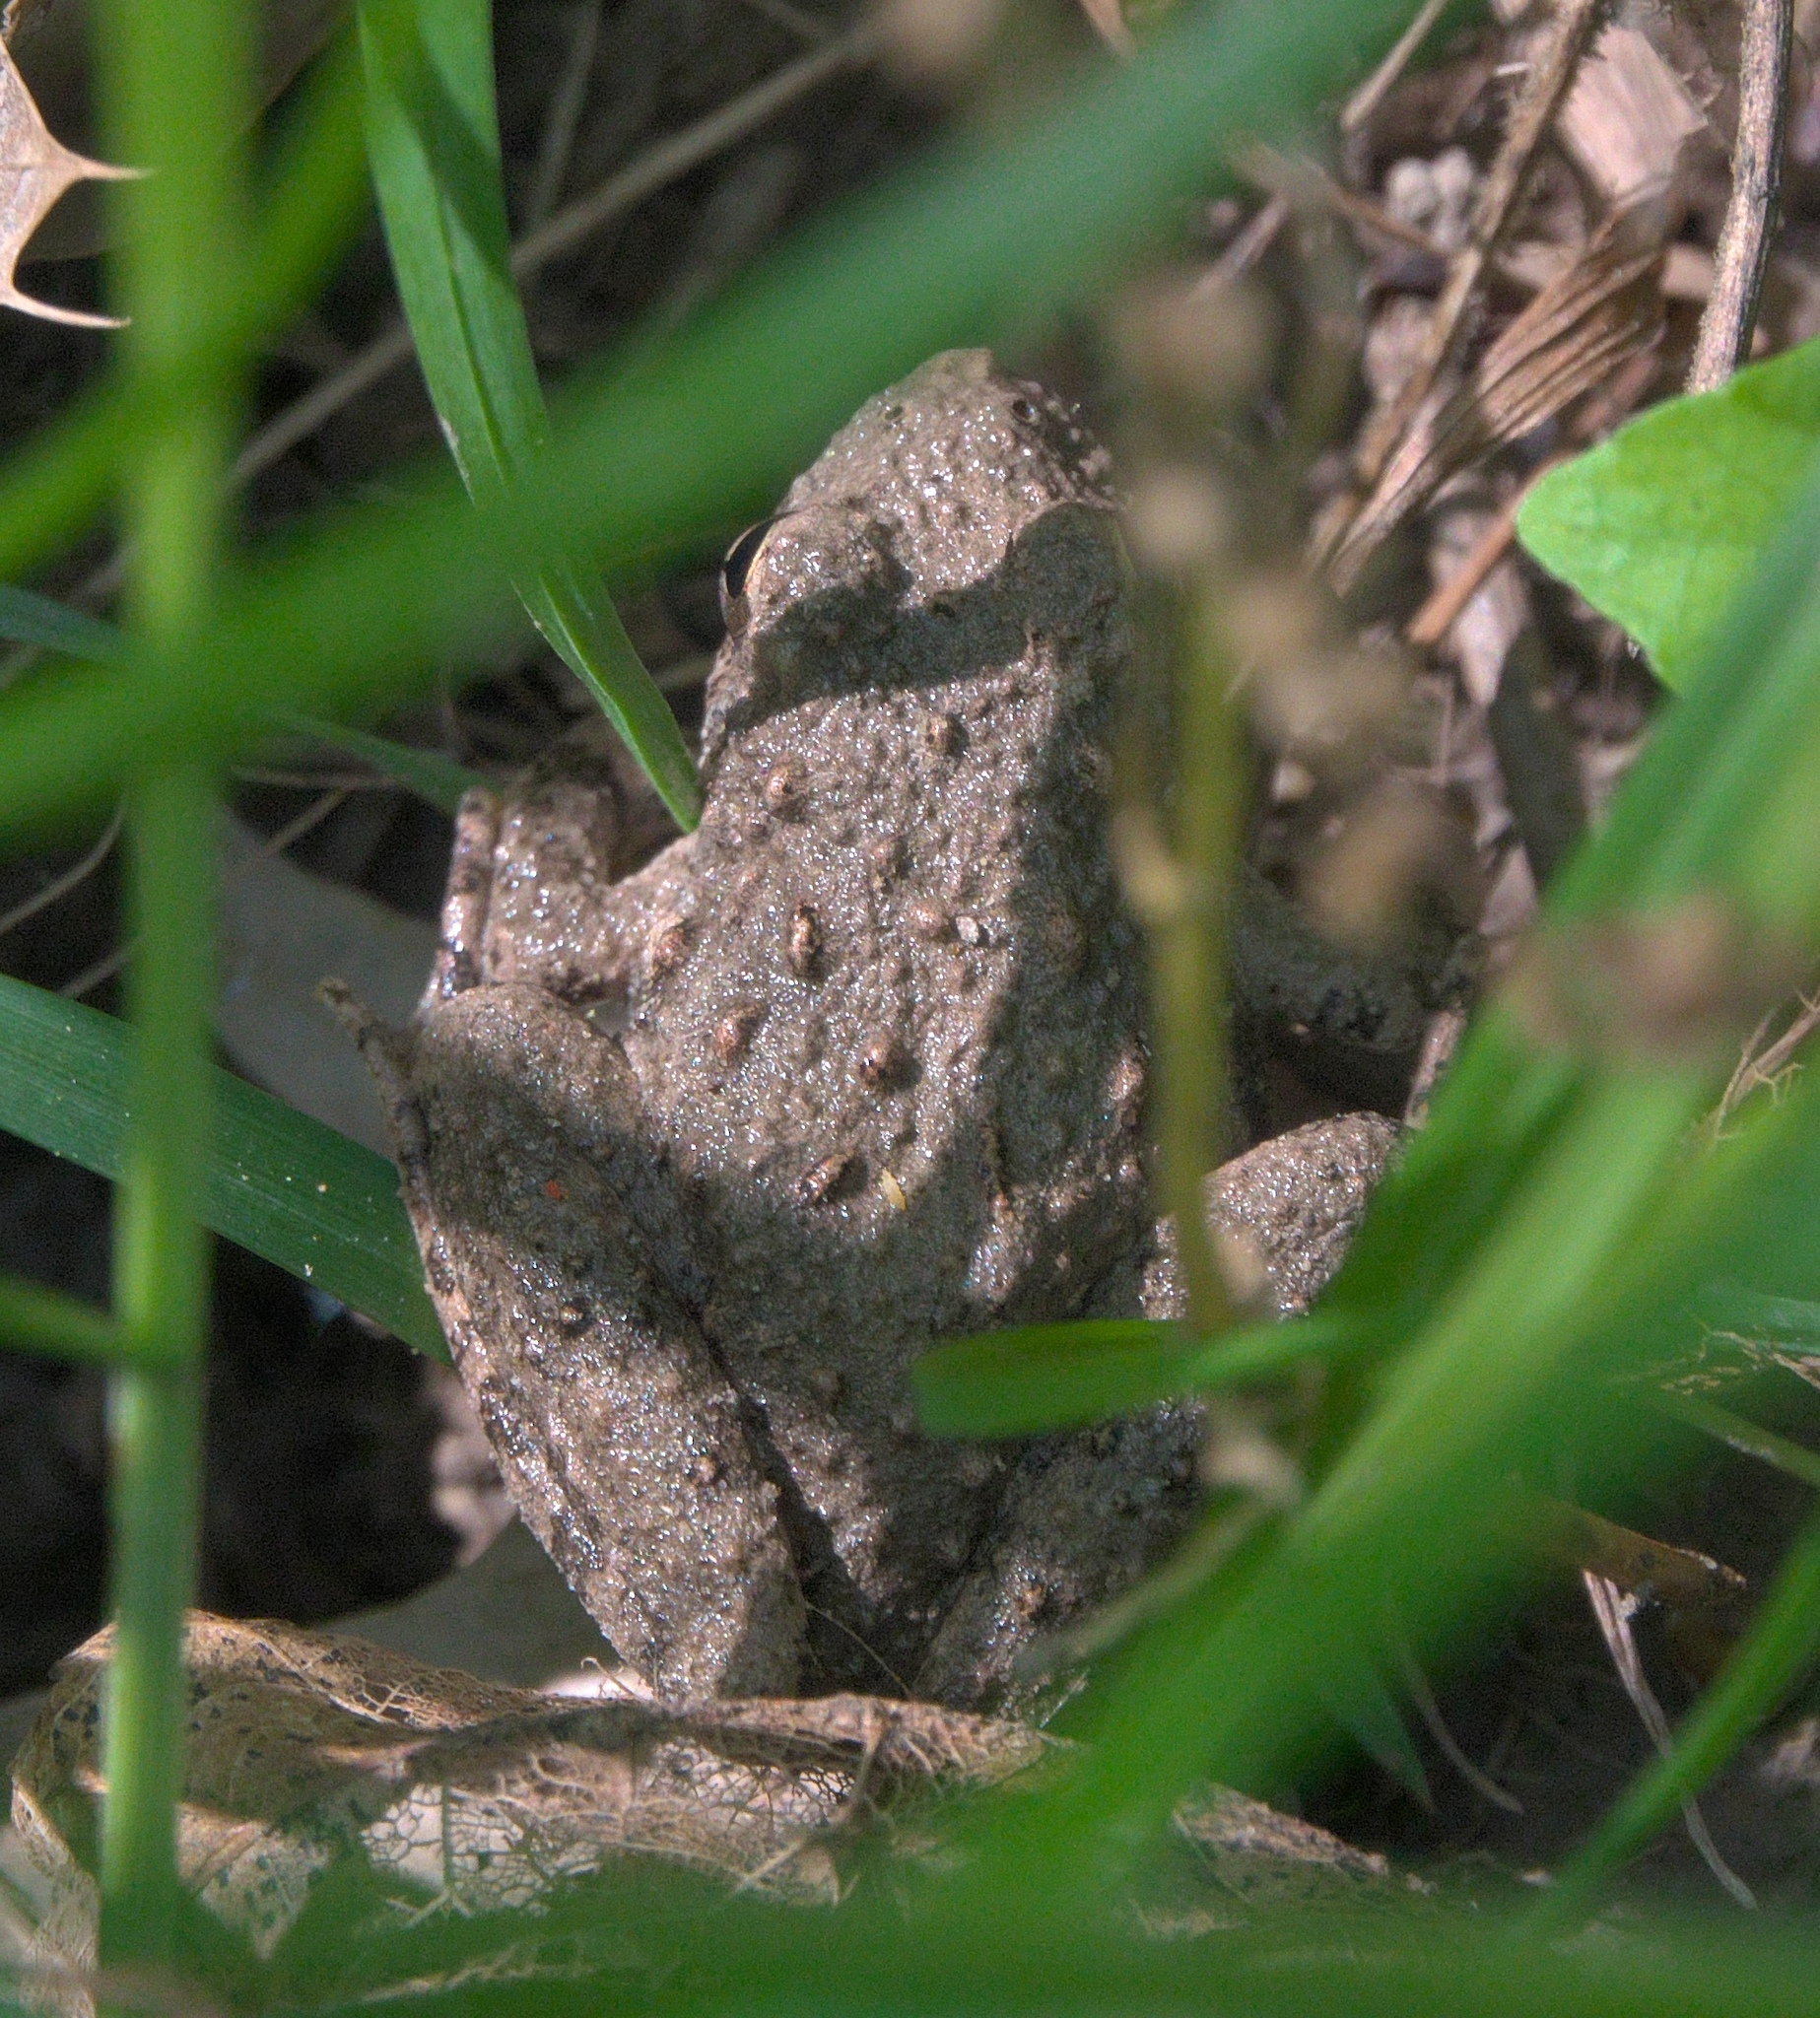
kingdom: Animalia
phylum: Chordata
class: Amphibia
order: Anura
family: Hylidae
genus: Acris
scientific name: Acris blanchardi
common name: Blanchard's cricket frog
